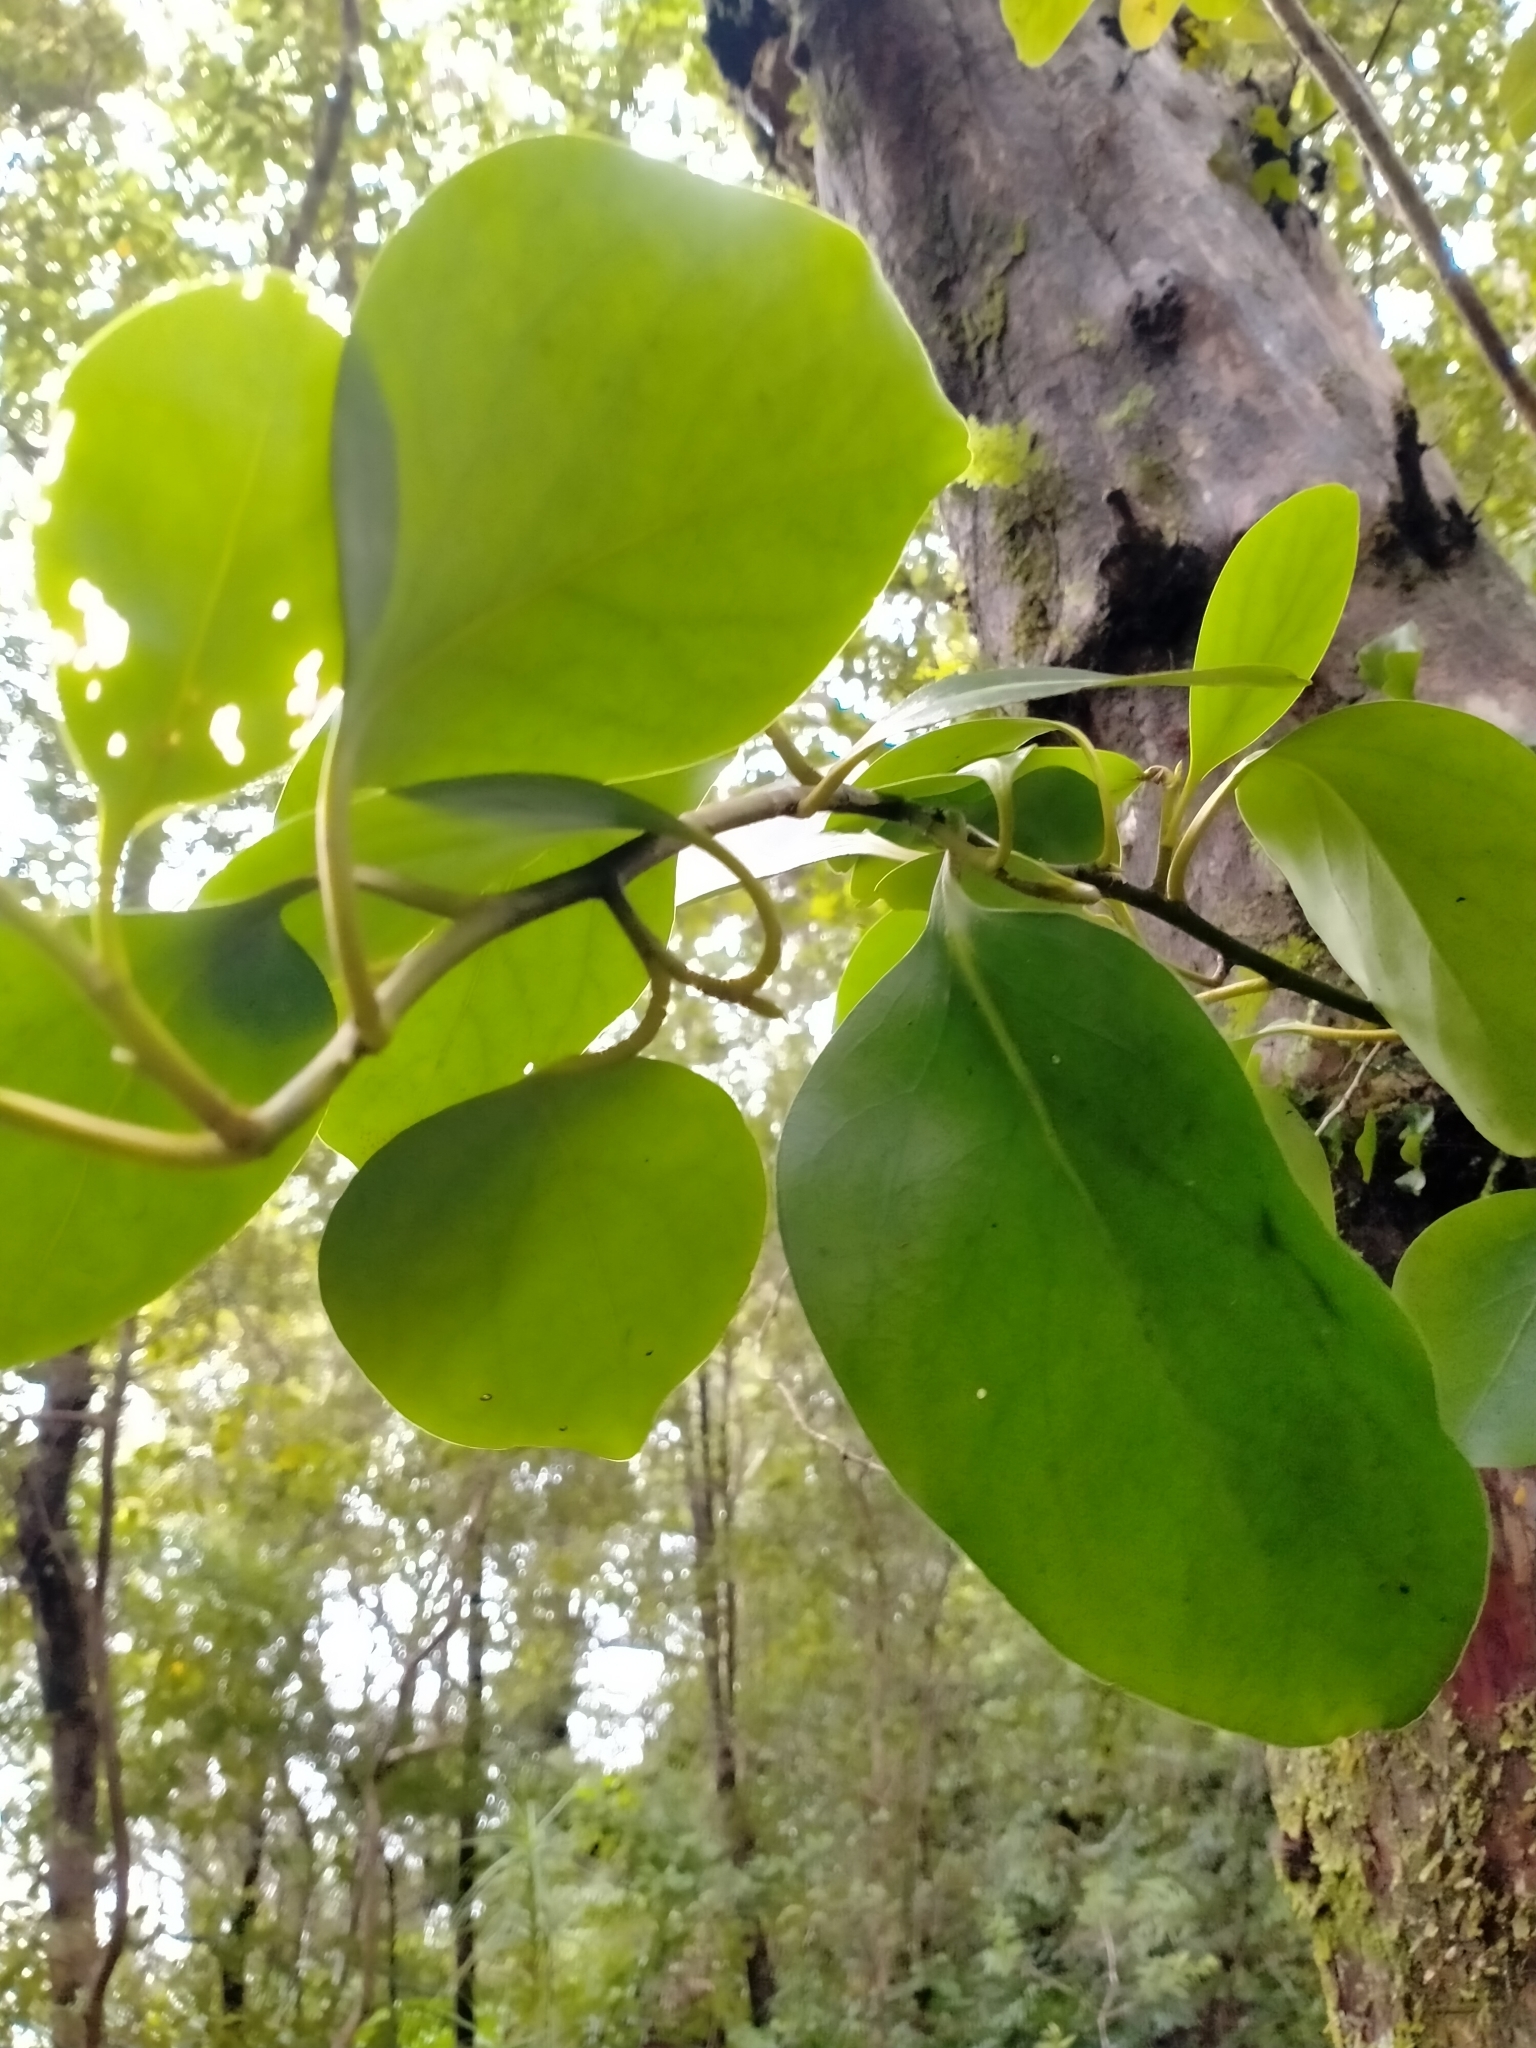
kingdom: Plantae
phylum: Tracheophyta
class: Magnoliopsida
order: Apiales
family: Griseliniaceae
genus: Griselinia
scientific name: Griselinia littoralis
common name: New zealand broadleaf
